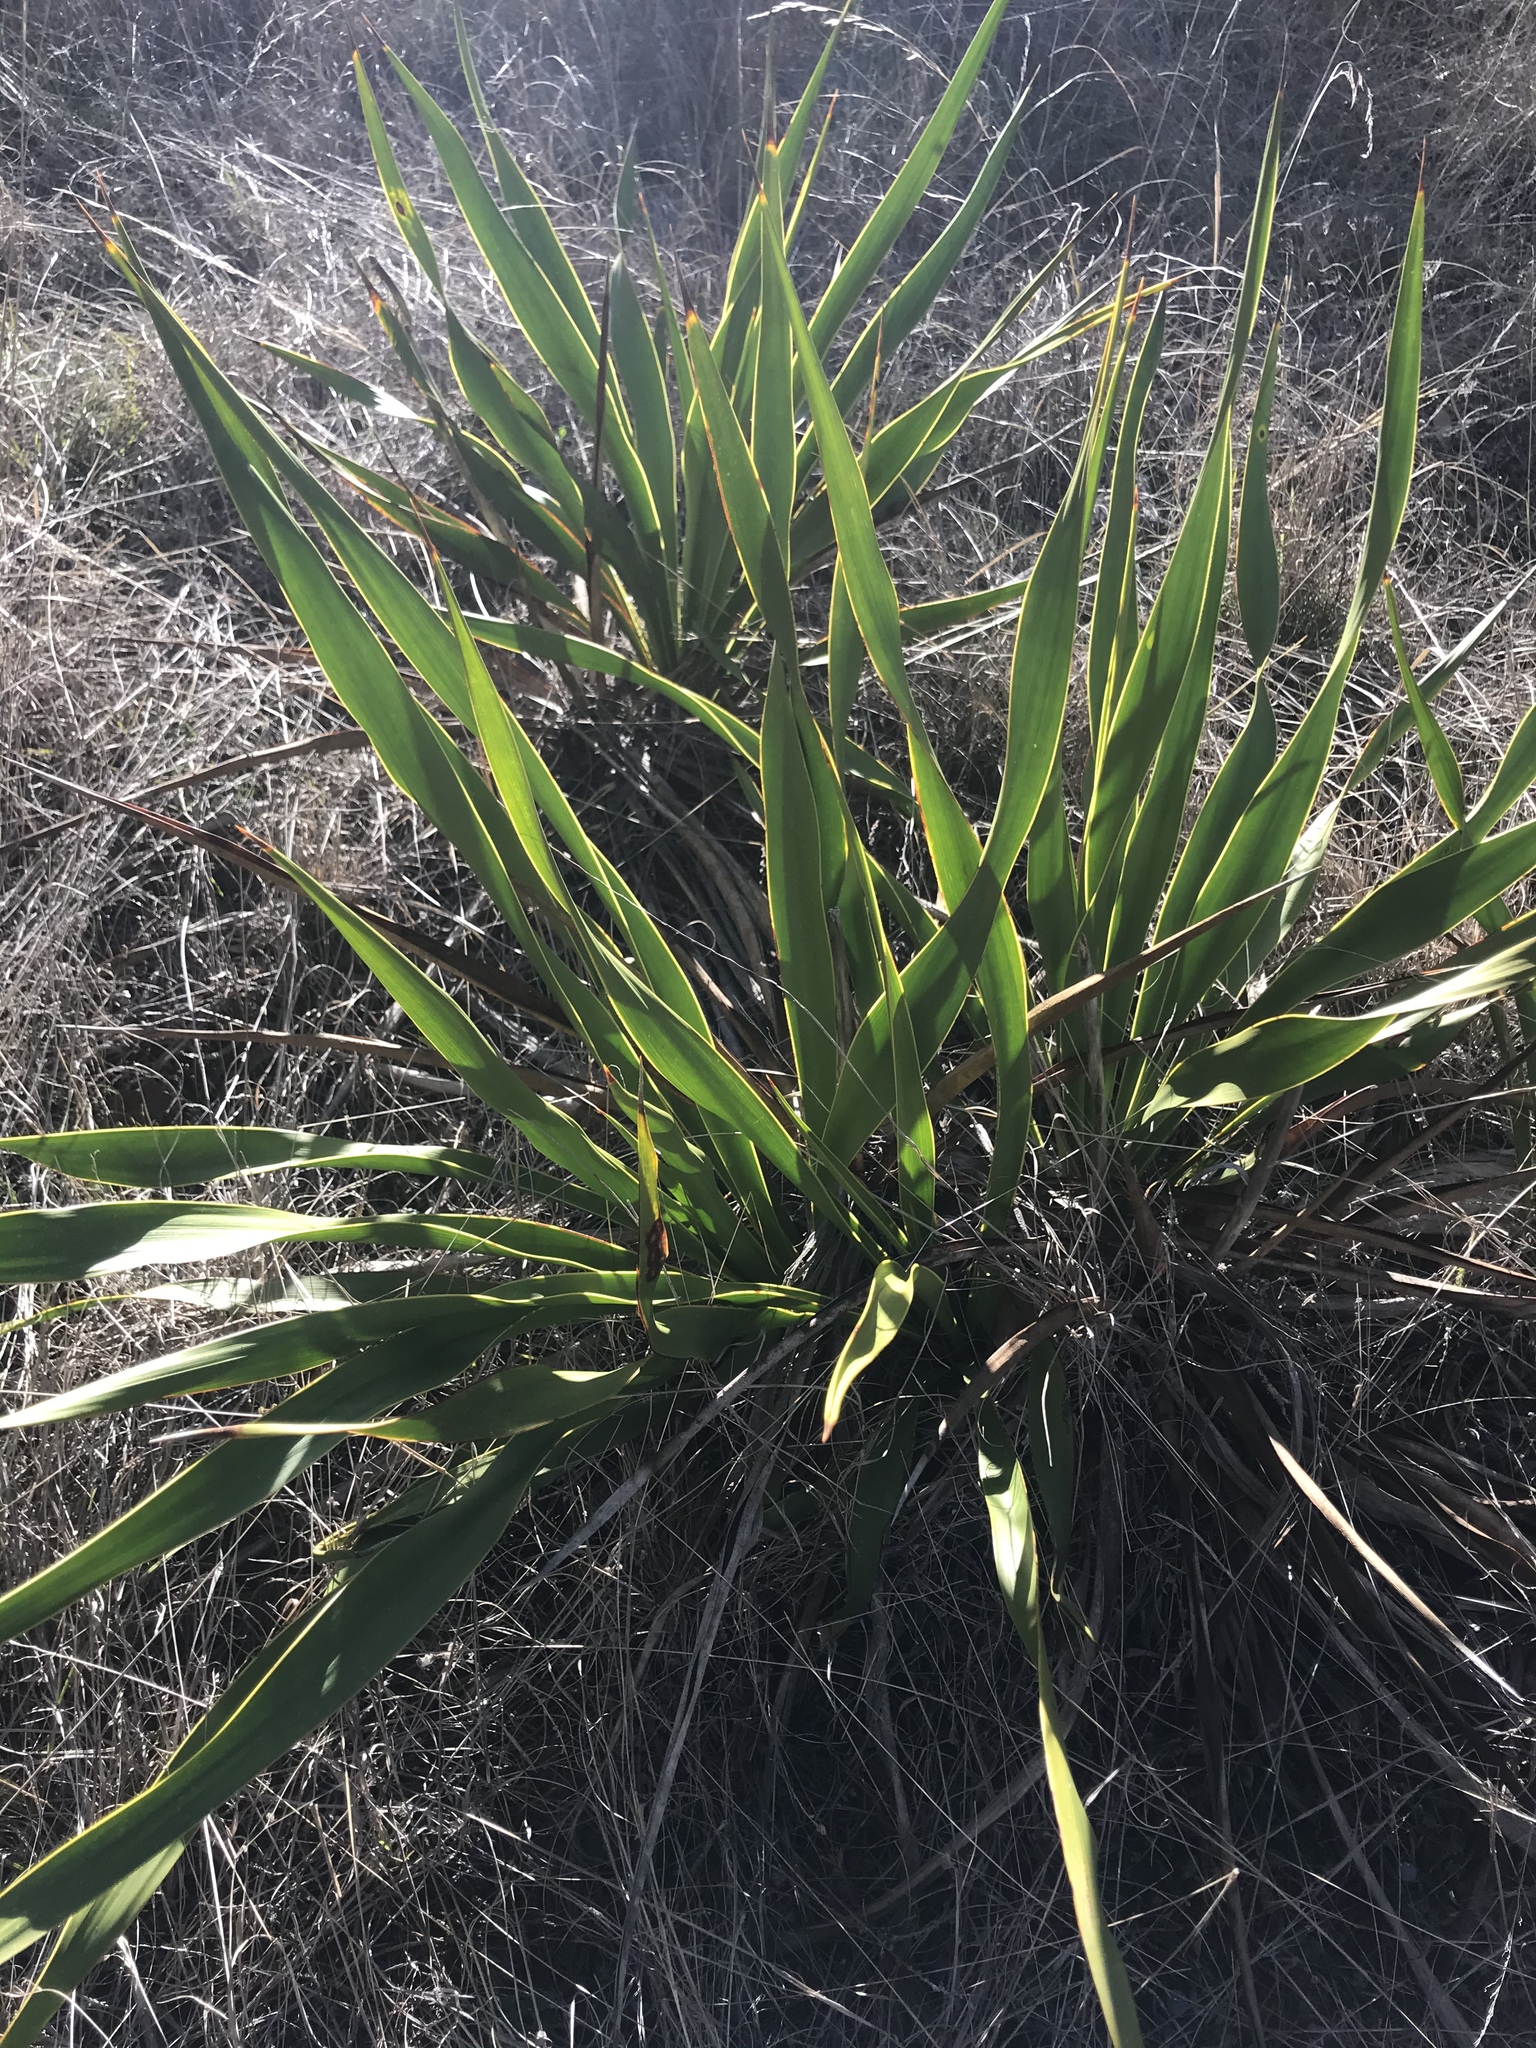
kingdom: Plantae
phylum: Tracheophyta
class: Liliopsida
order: Asparagales
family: Asparagaceae
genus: Yucca
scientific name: Yucca rupicola
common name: Twisted-leaf spanish-dagger
